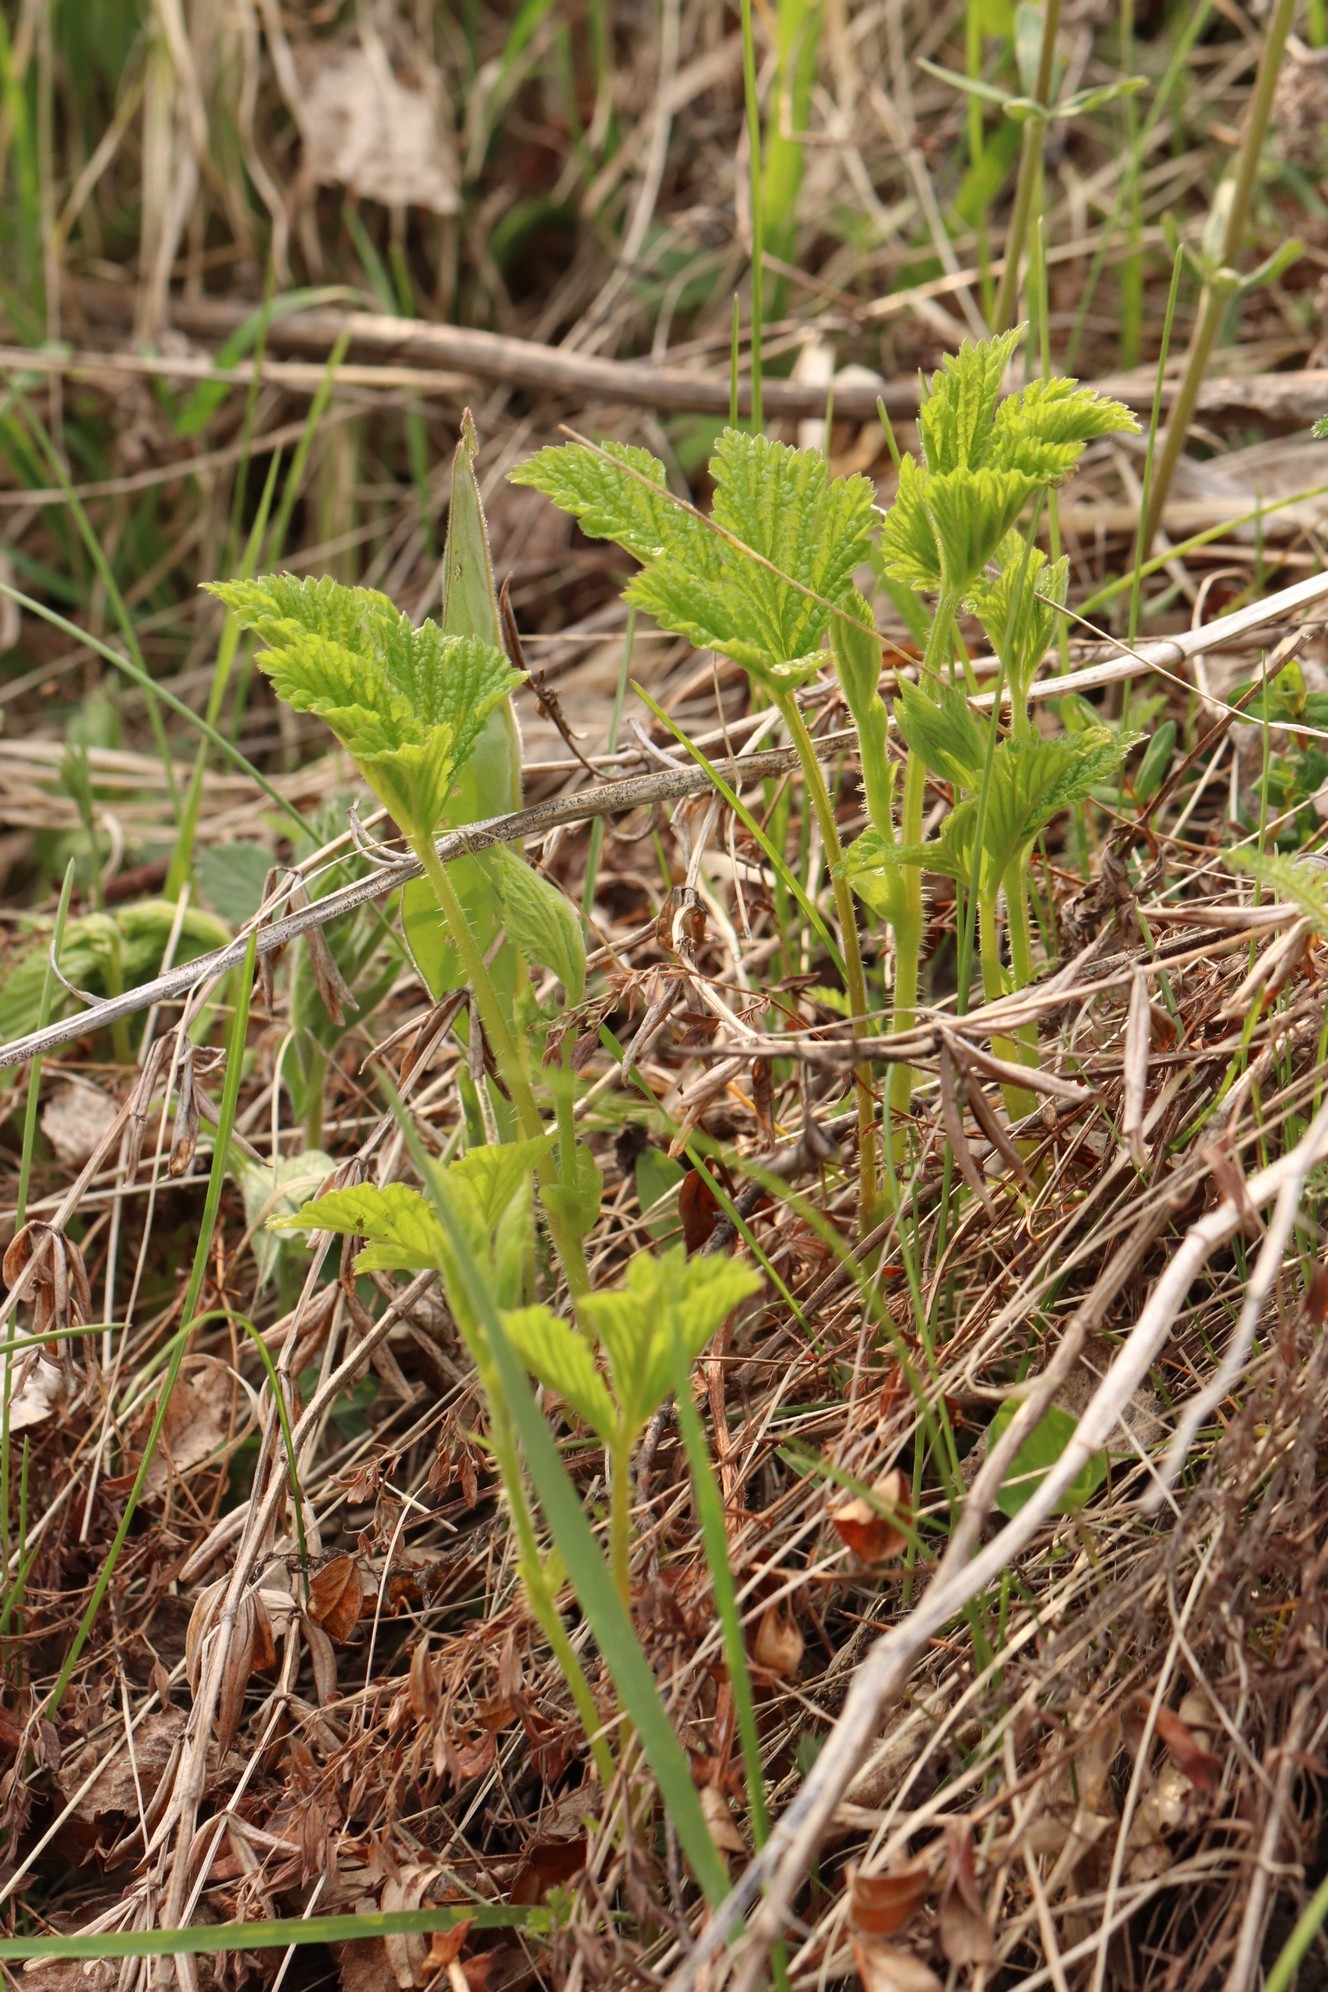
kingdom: Plantae
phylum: Tracheophyta
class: Magnoliopsida
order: Rosales
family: Rosaceae
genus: Rubus
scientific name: Rubus saxatilis
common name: Stone bramble
